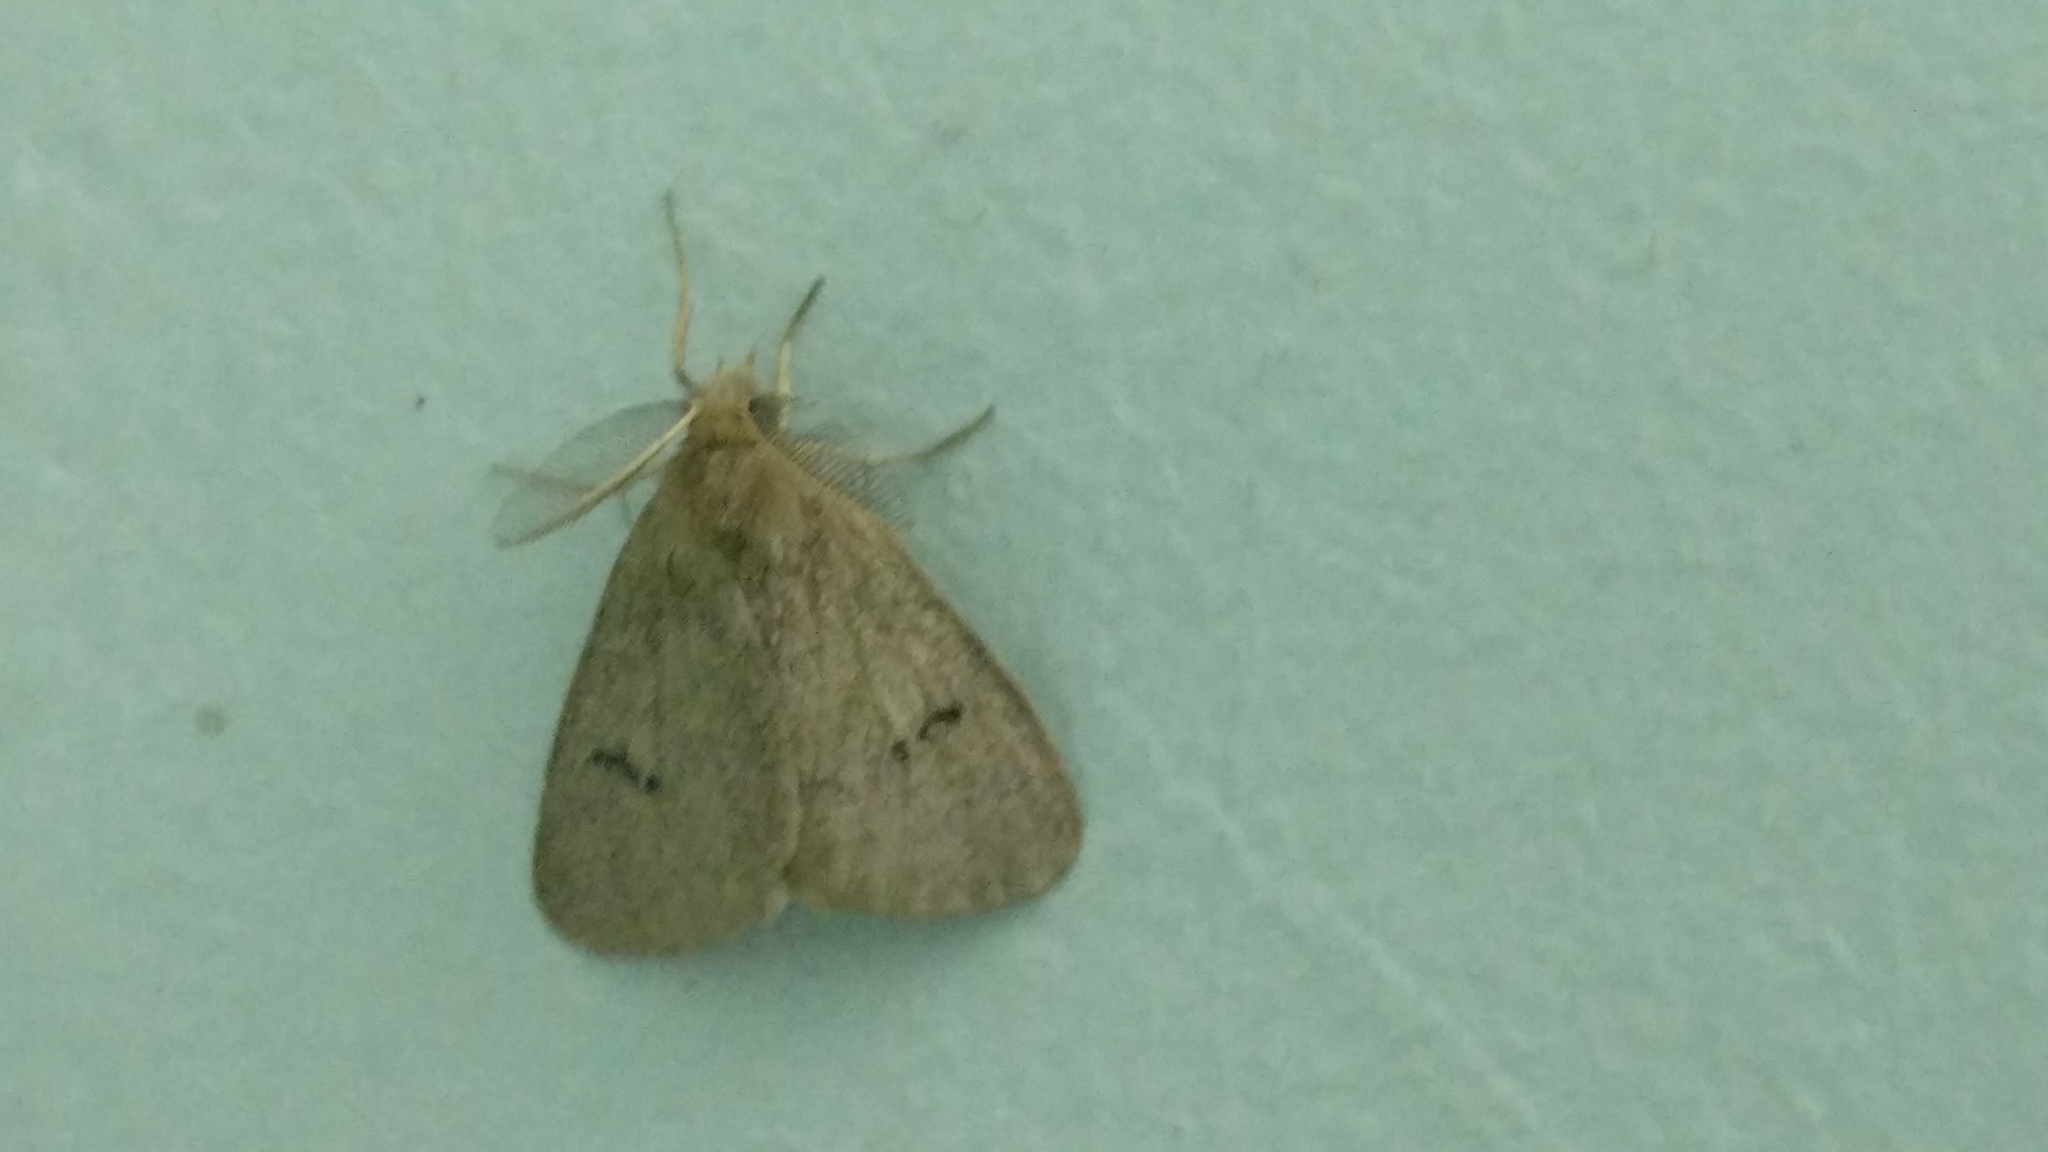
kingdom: Animalia
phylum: Arthropoda
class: Insecta
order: Lepidoptera
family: Erebidae
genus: Laelia
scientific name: Laelia exclamationis
